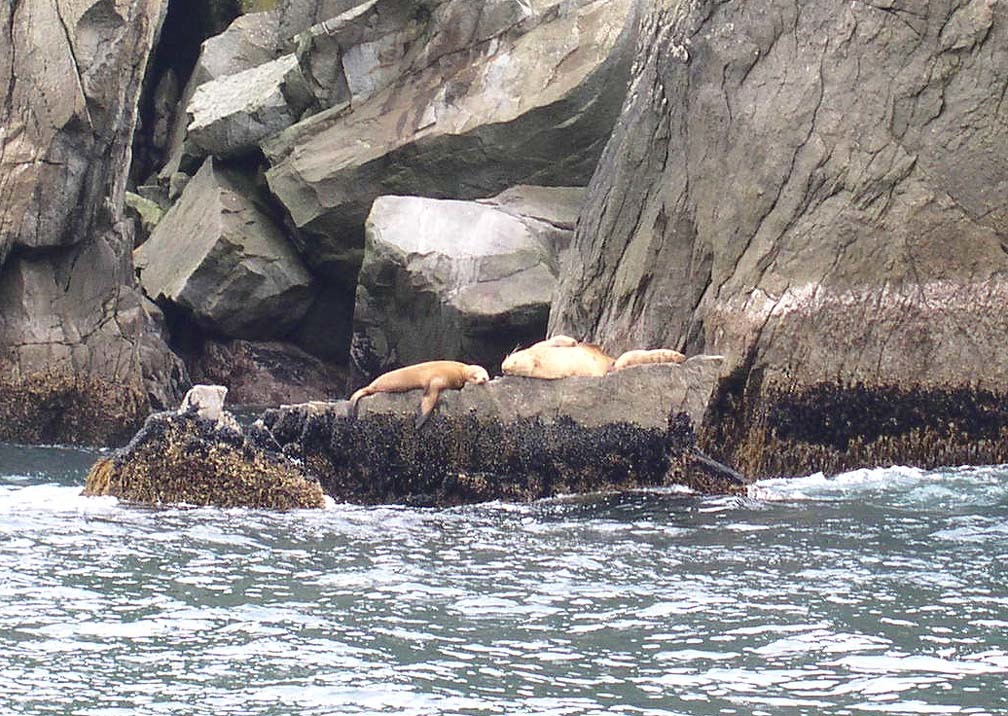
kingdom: Animalia
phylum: Chordata
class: Mammalia
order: Carnivora
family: Otariidae
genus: Eumetopias
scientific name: Eumetopias jubatus
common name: Steller sea lion
